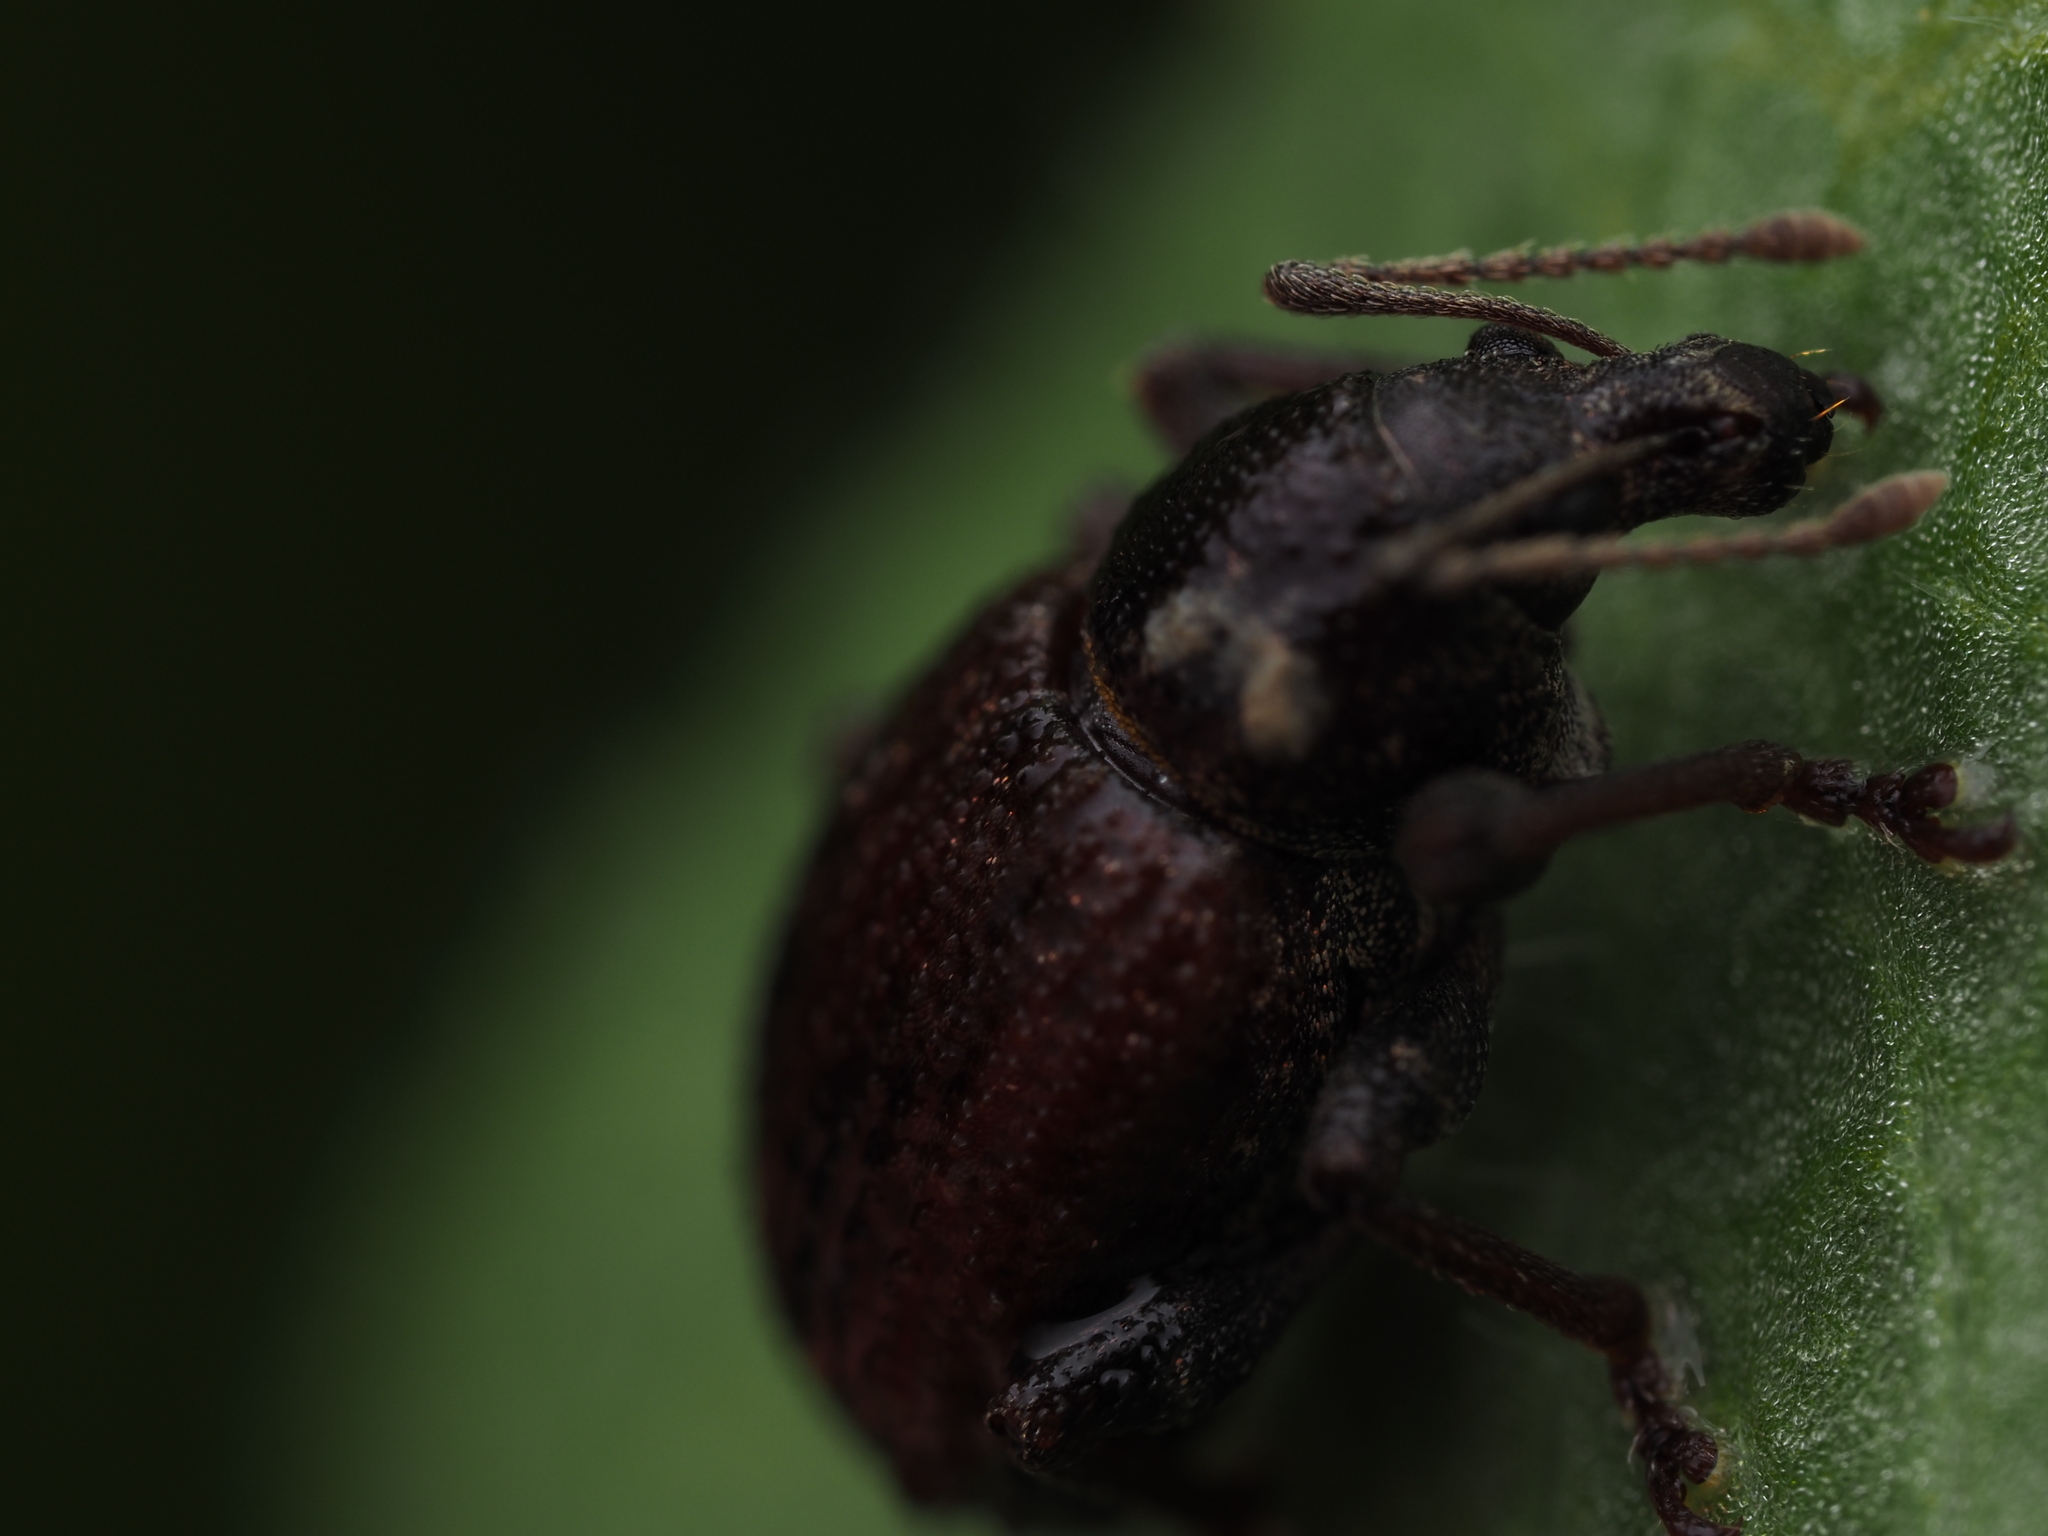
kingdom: Animalia
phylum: Arthropoda
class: Insecta
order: Coleoptera
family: Curculionidae
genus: Phlyctinus
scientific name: Phlyctinus callosus
